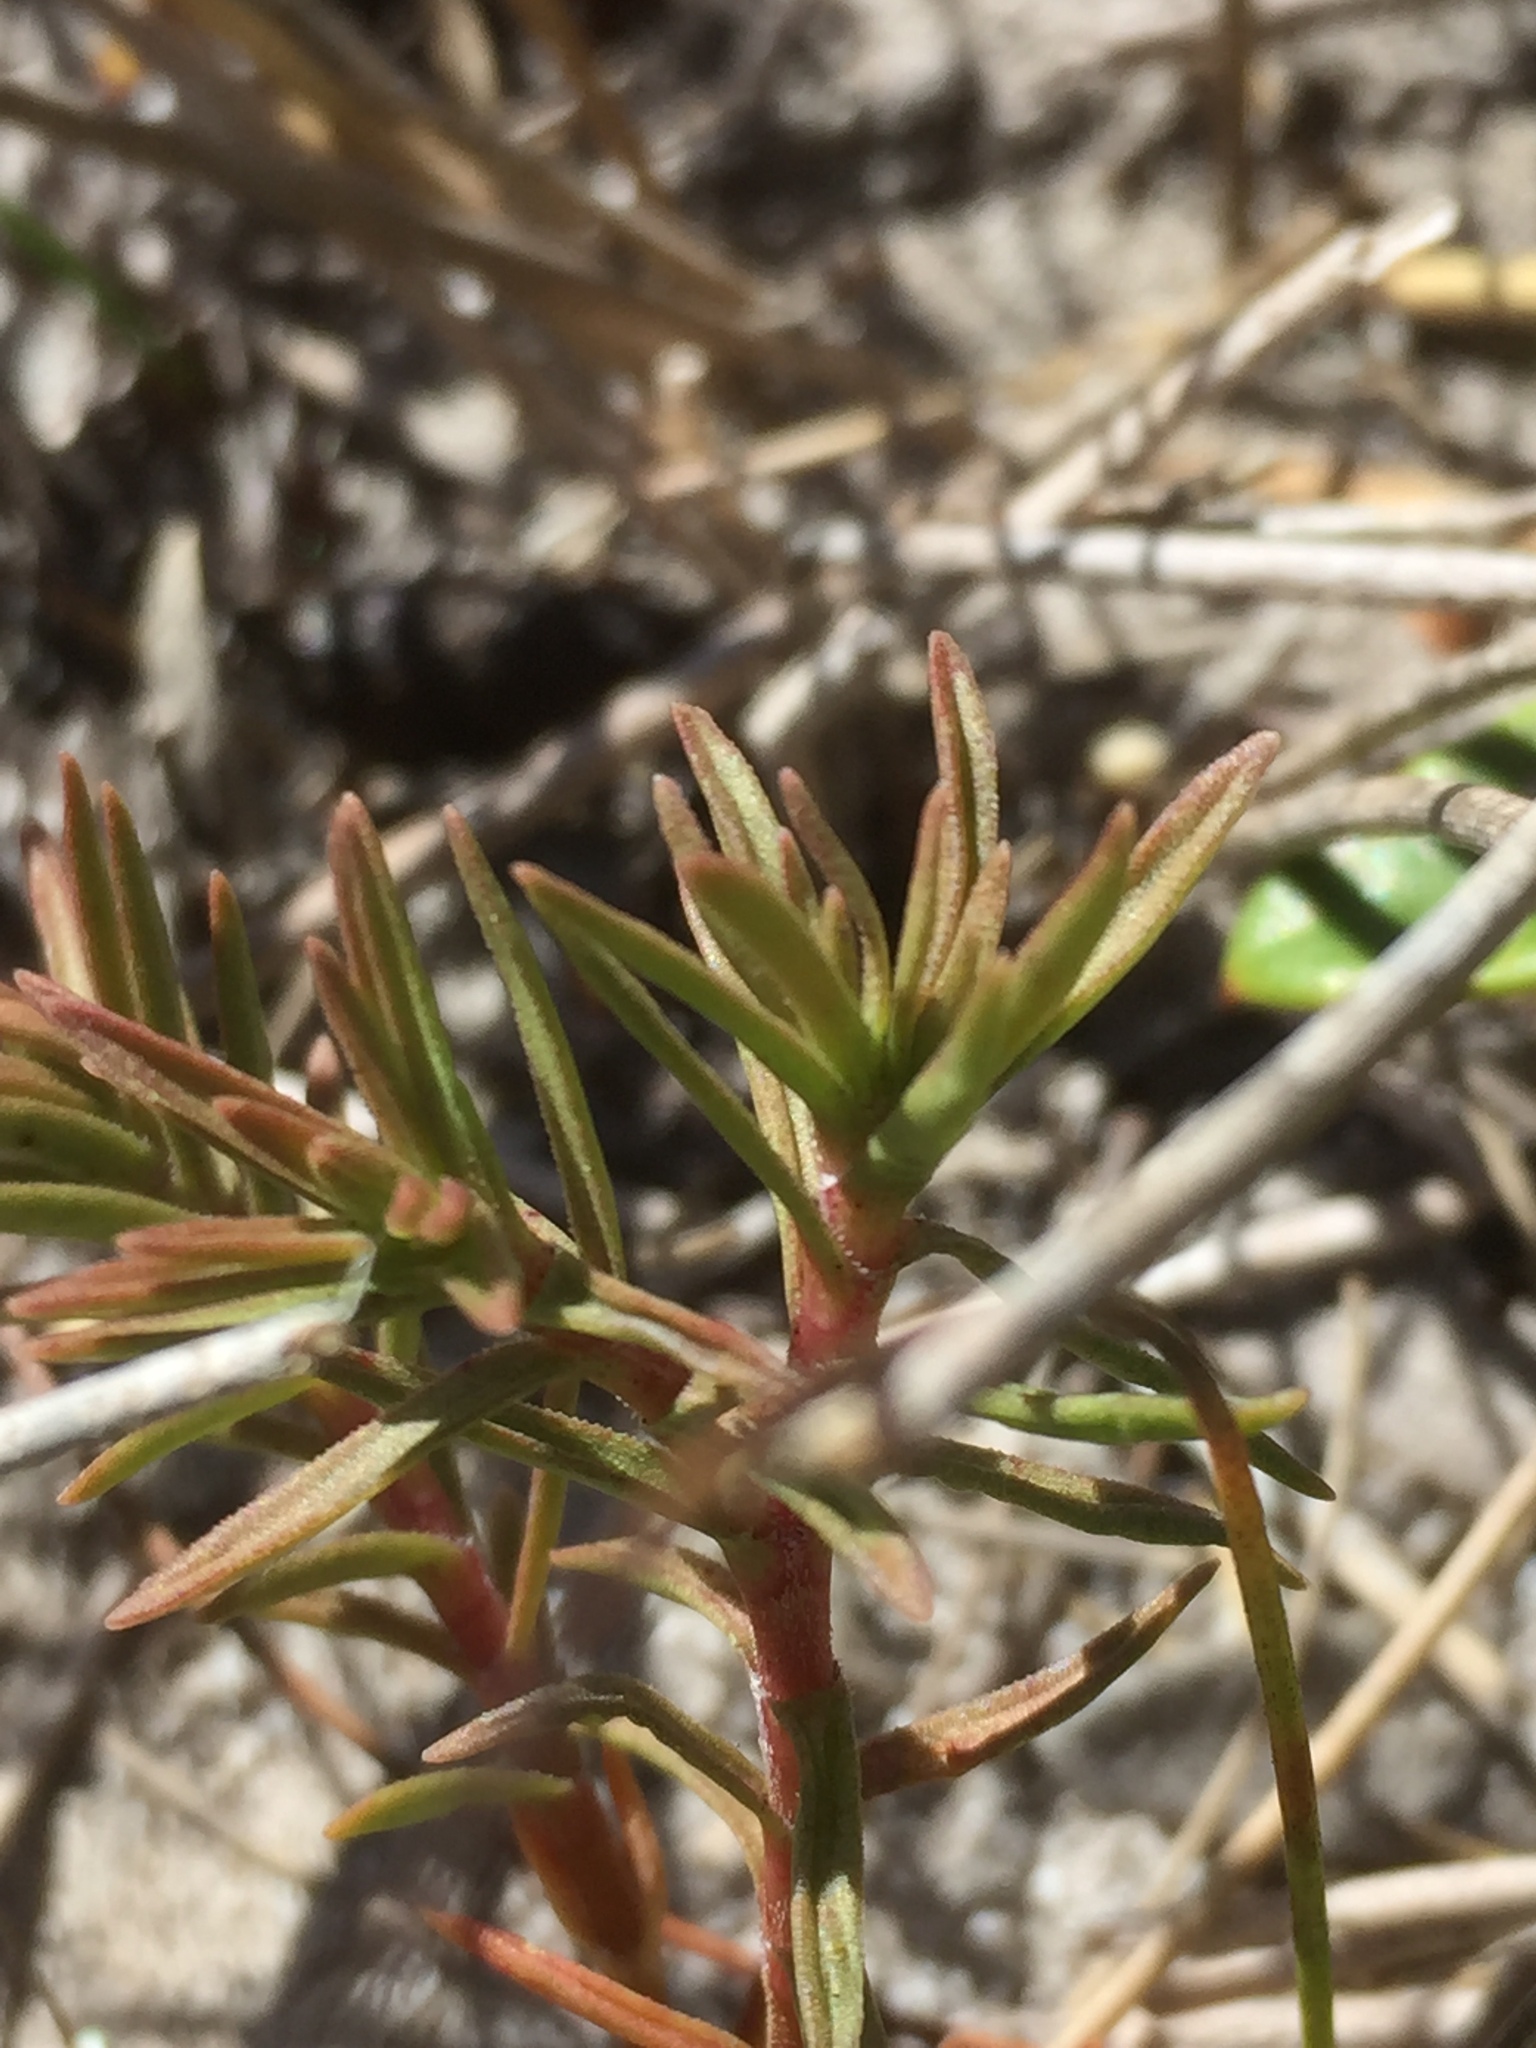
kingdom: Plantae
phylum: Tracheophyta
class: Magnoliopsida
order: Saxifragales
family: Crassulaceae
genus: Crassula
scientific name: Crassula fascicularis
